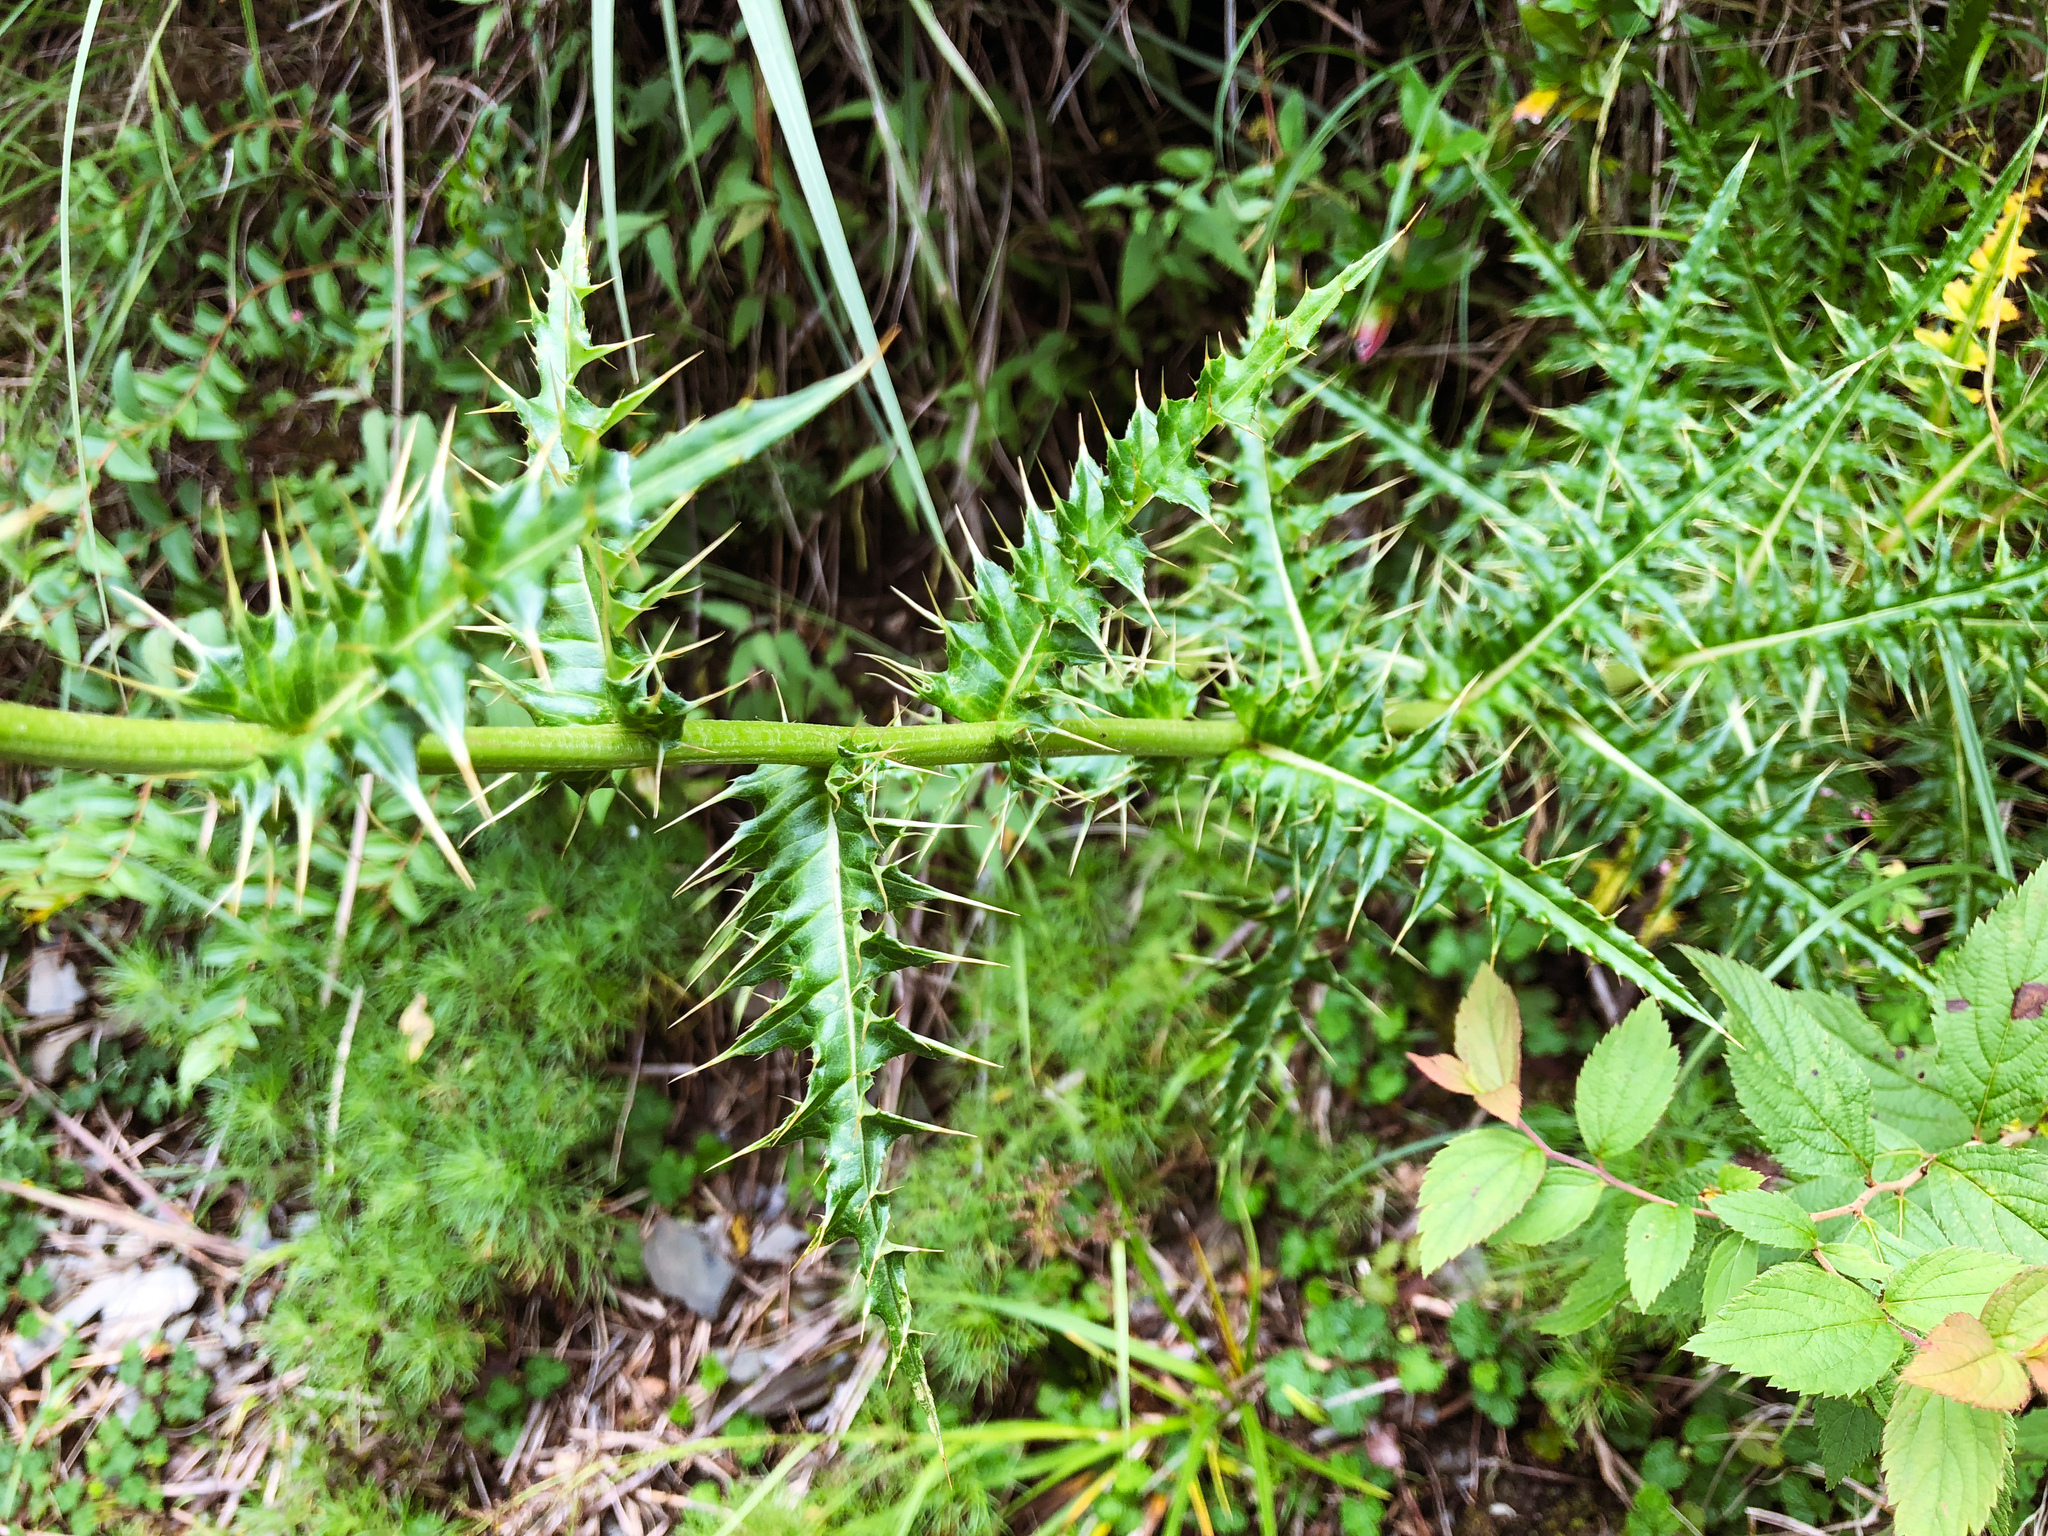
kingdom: Plantae
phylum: Tracheophyta
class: Magnoliopsida
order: Asterales
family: Asteraceae
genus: Cirsium
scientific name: Cirsium arisanense
